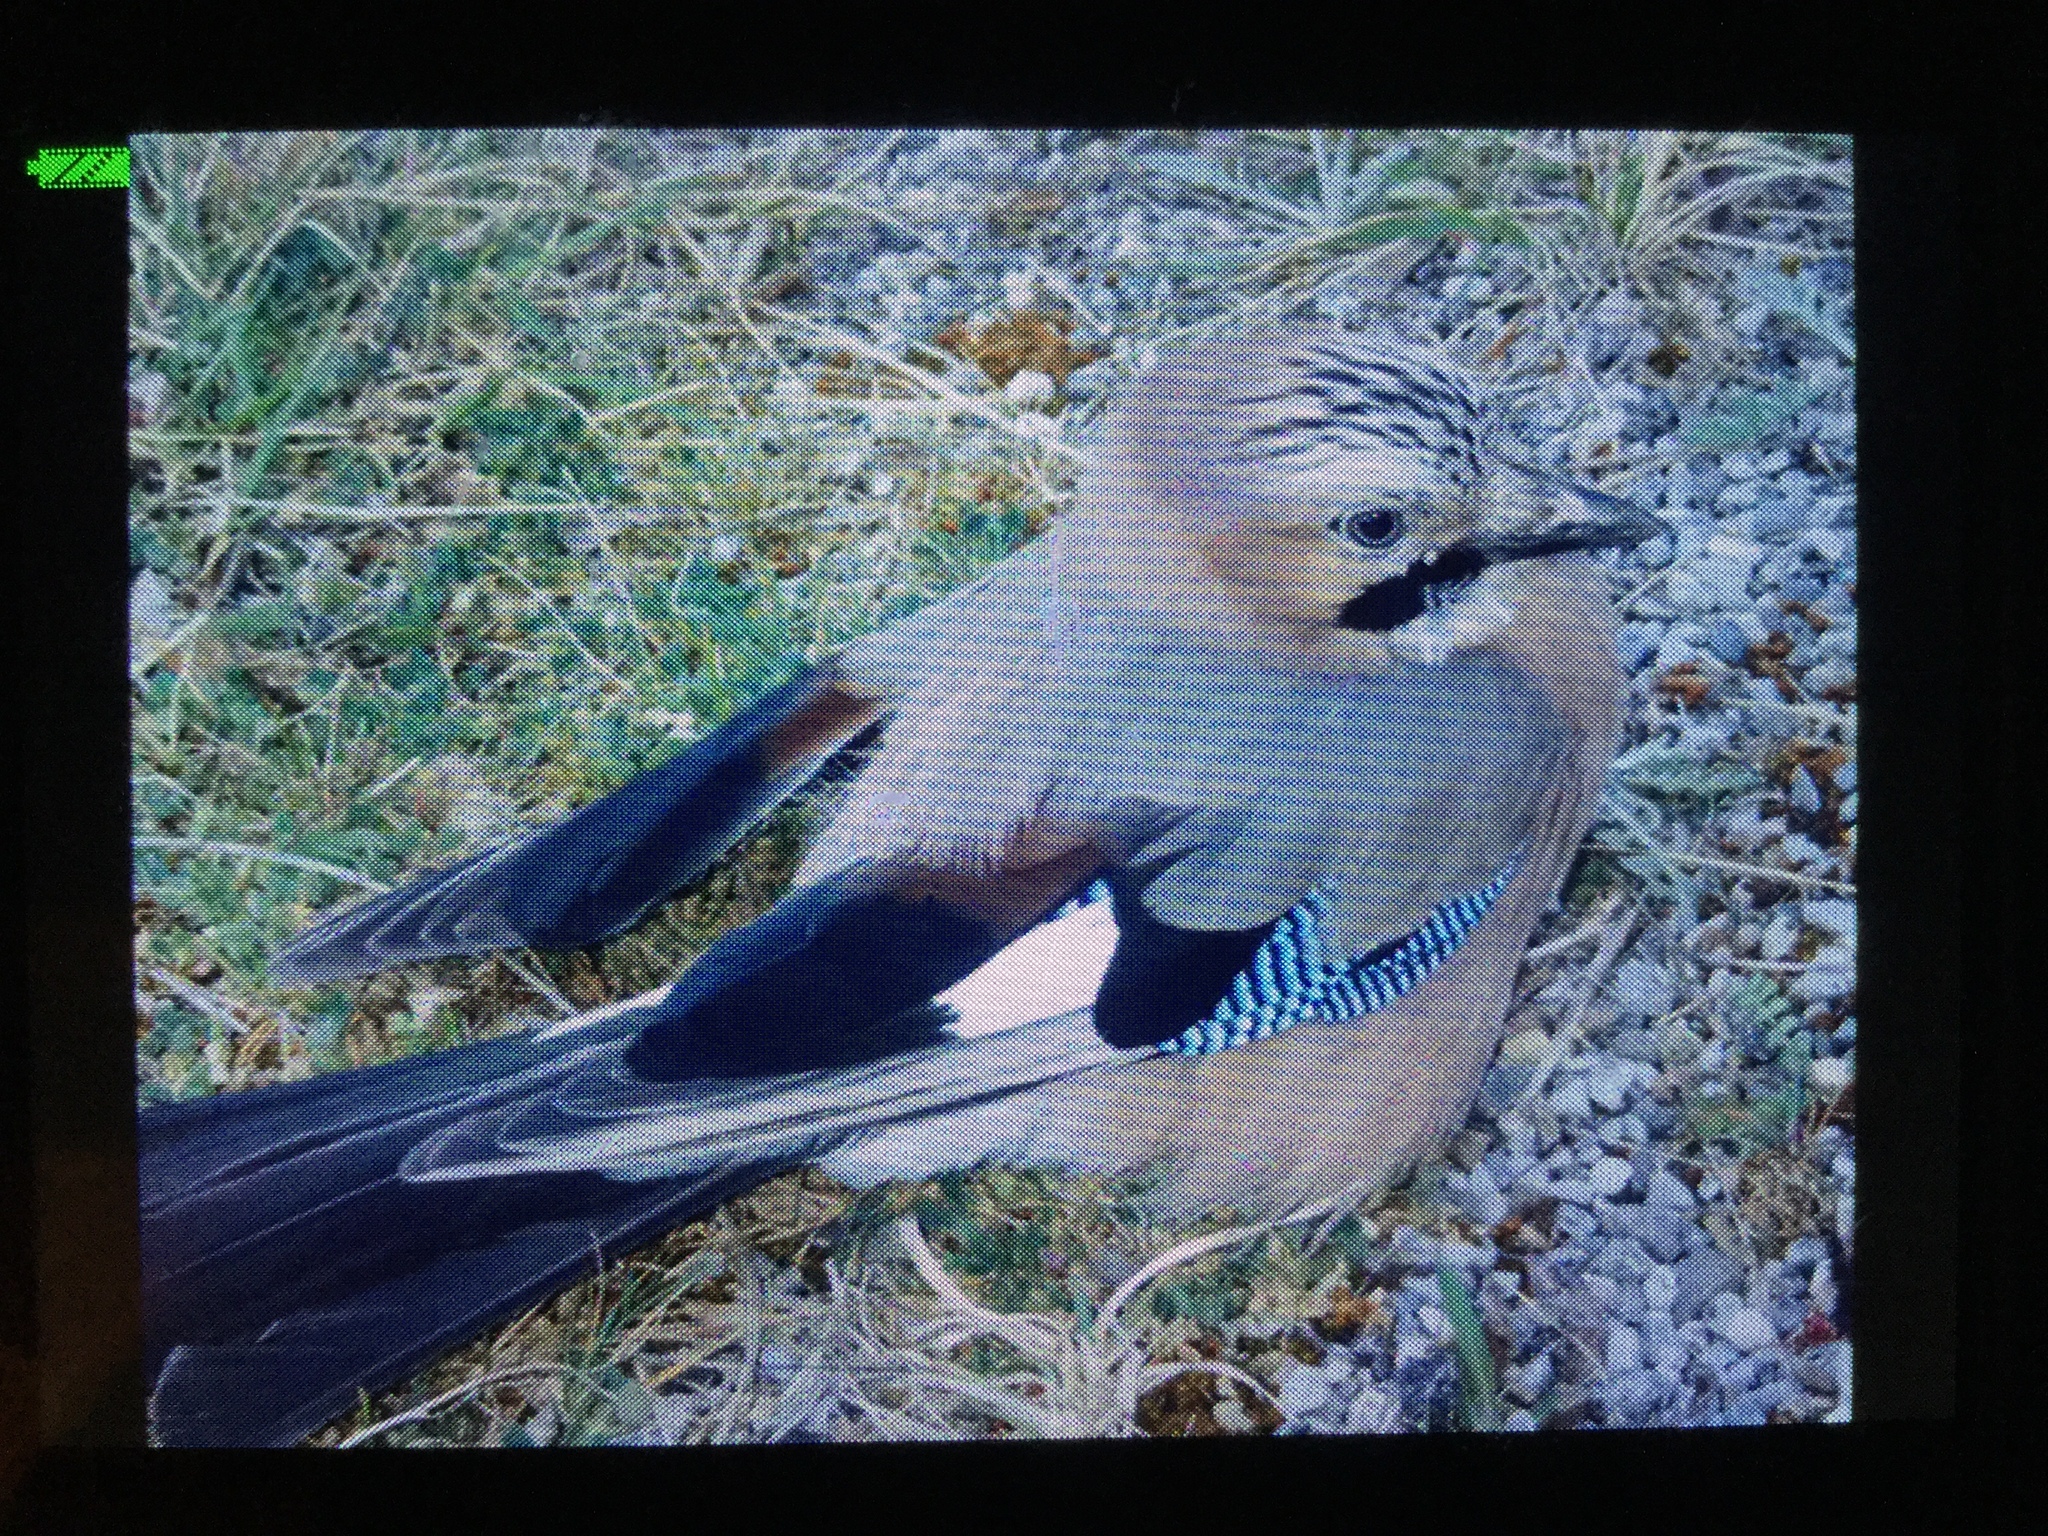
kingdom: Animalia
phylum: Chordata
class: Aves
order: Passeriformes
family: Corvidae
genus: Garrulus
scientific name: Garrulus glandarius
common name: Eurasian jay
